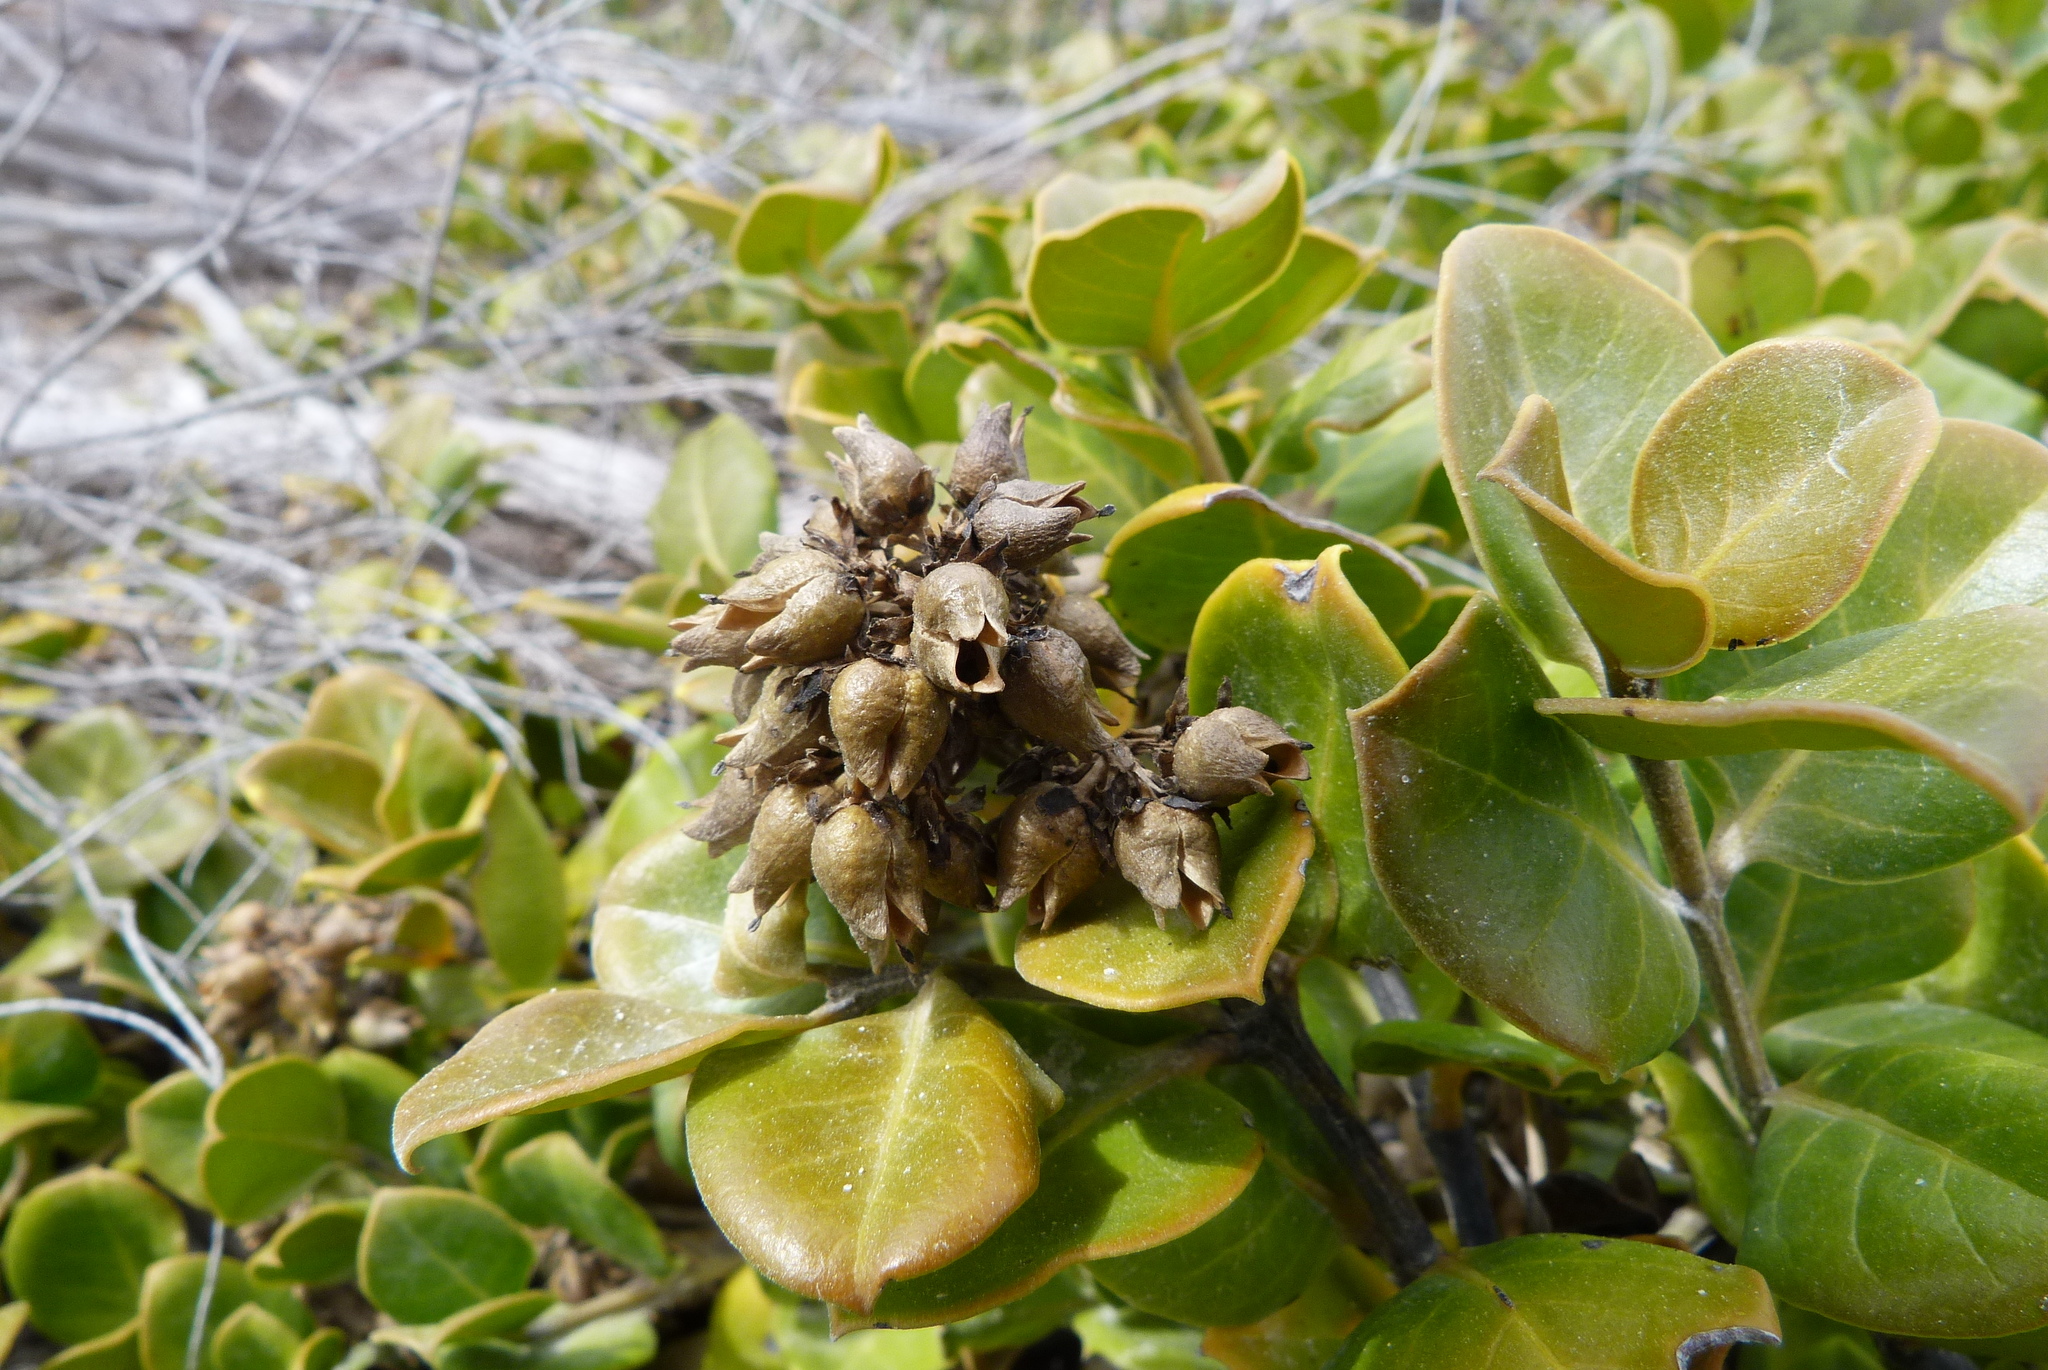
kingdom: Plantae
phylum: Tracheophyta
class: Magnoliopsida
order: Gentianales
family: Loganiaceae
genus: Logania
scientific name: Logania crassifolia
